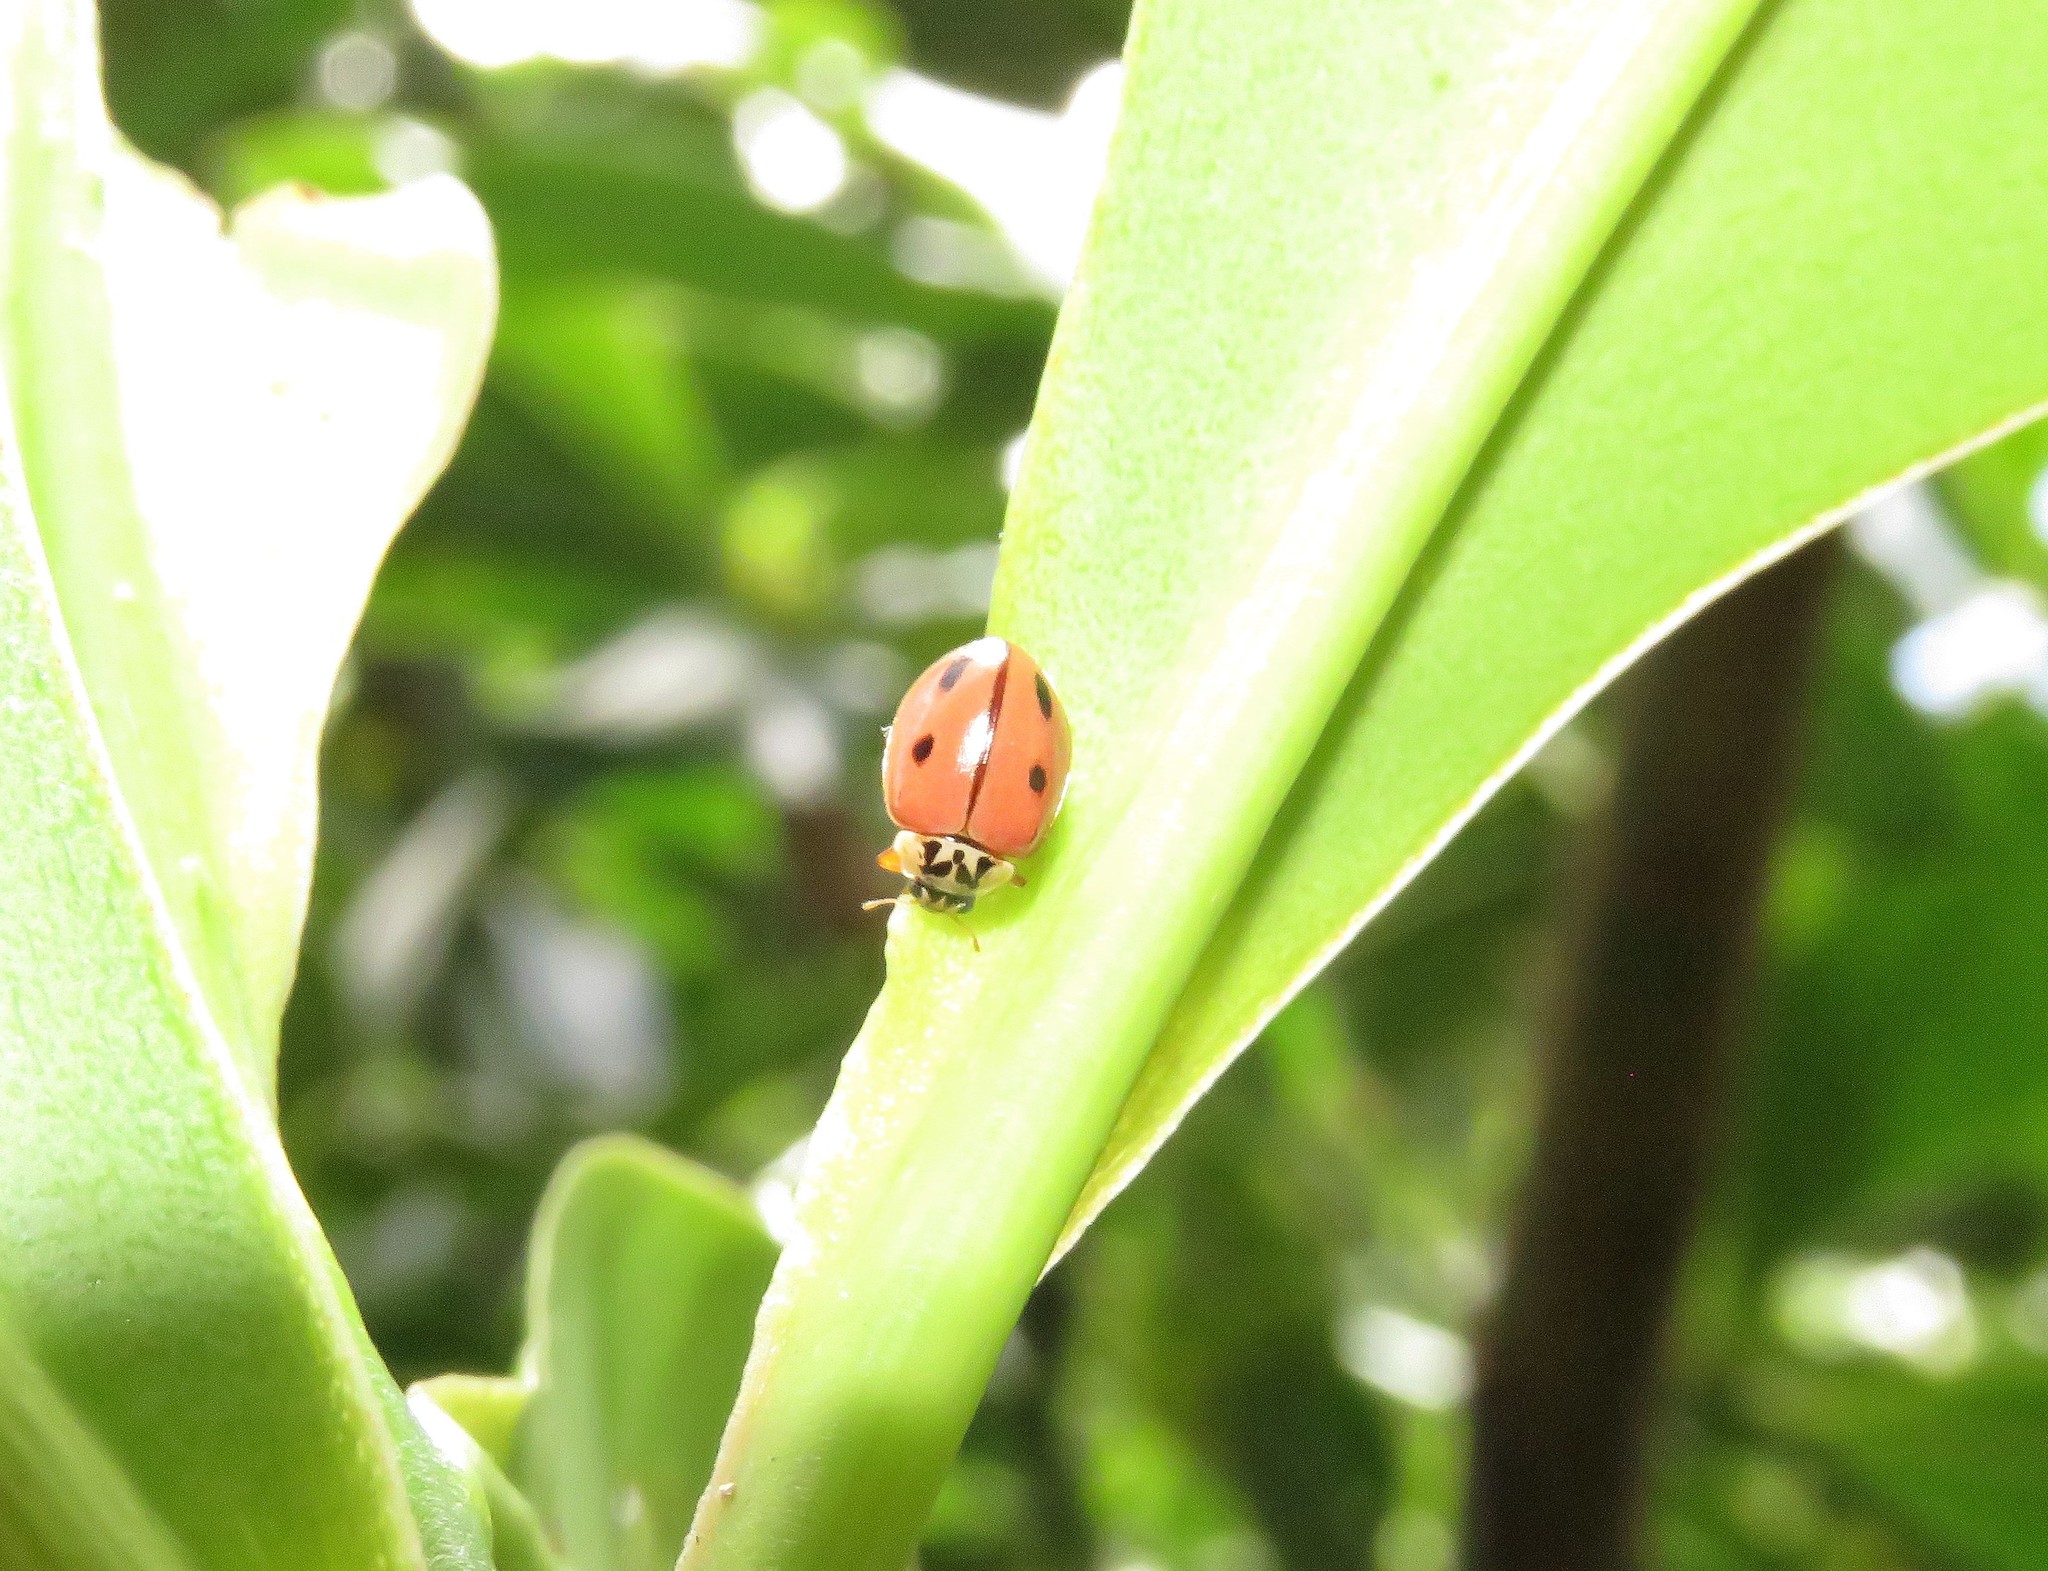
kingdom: Animalia
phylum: Arthropoda
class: Insecta
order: Coleoptera
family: Coccinellidae
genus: Mulsantina
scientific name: Mulsantina
